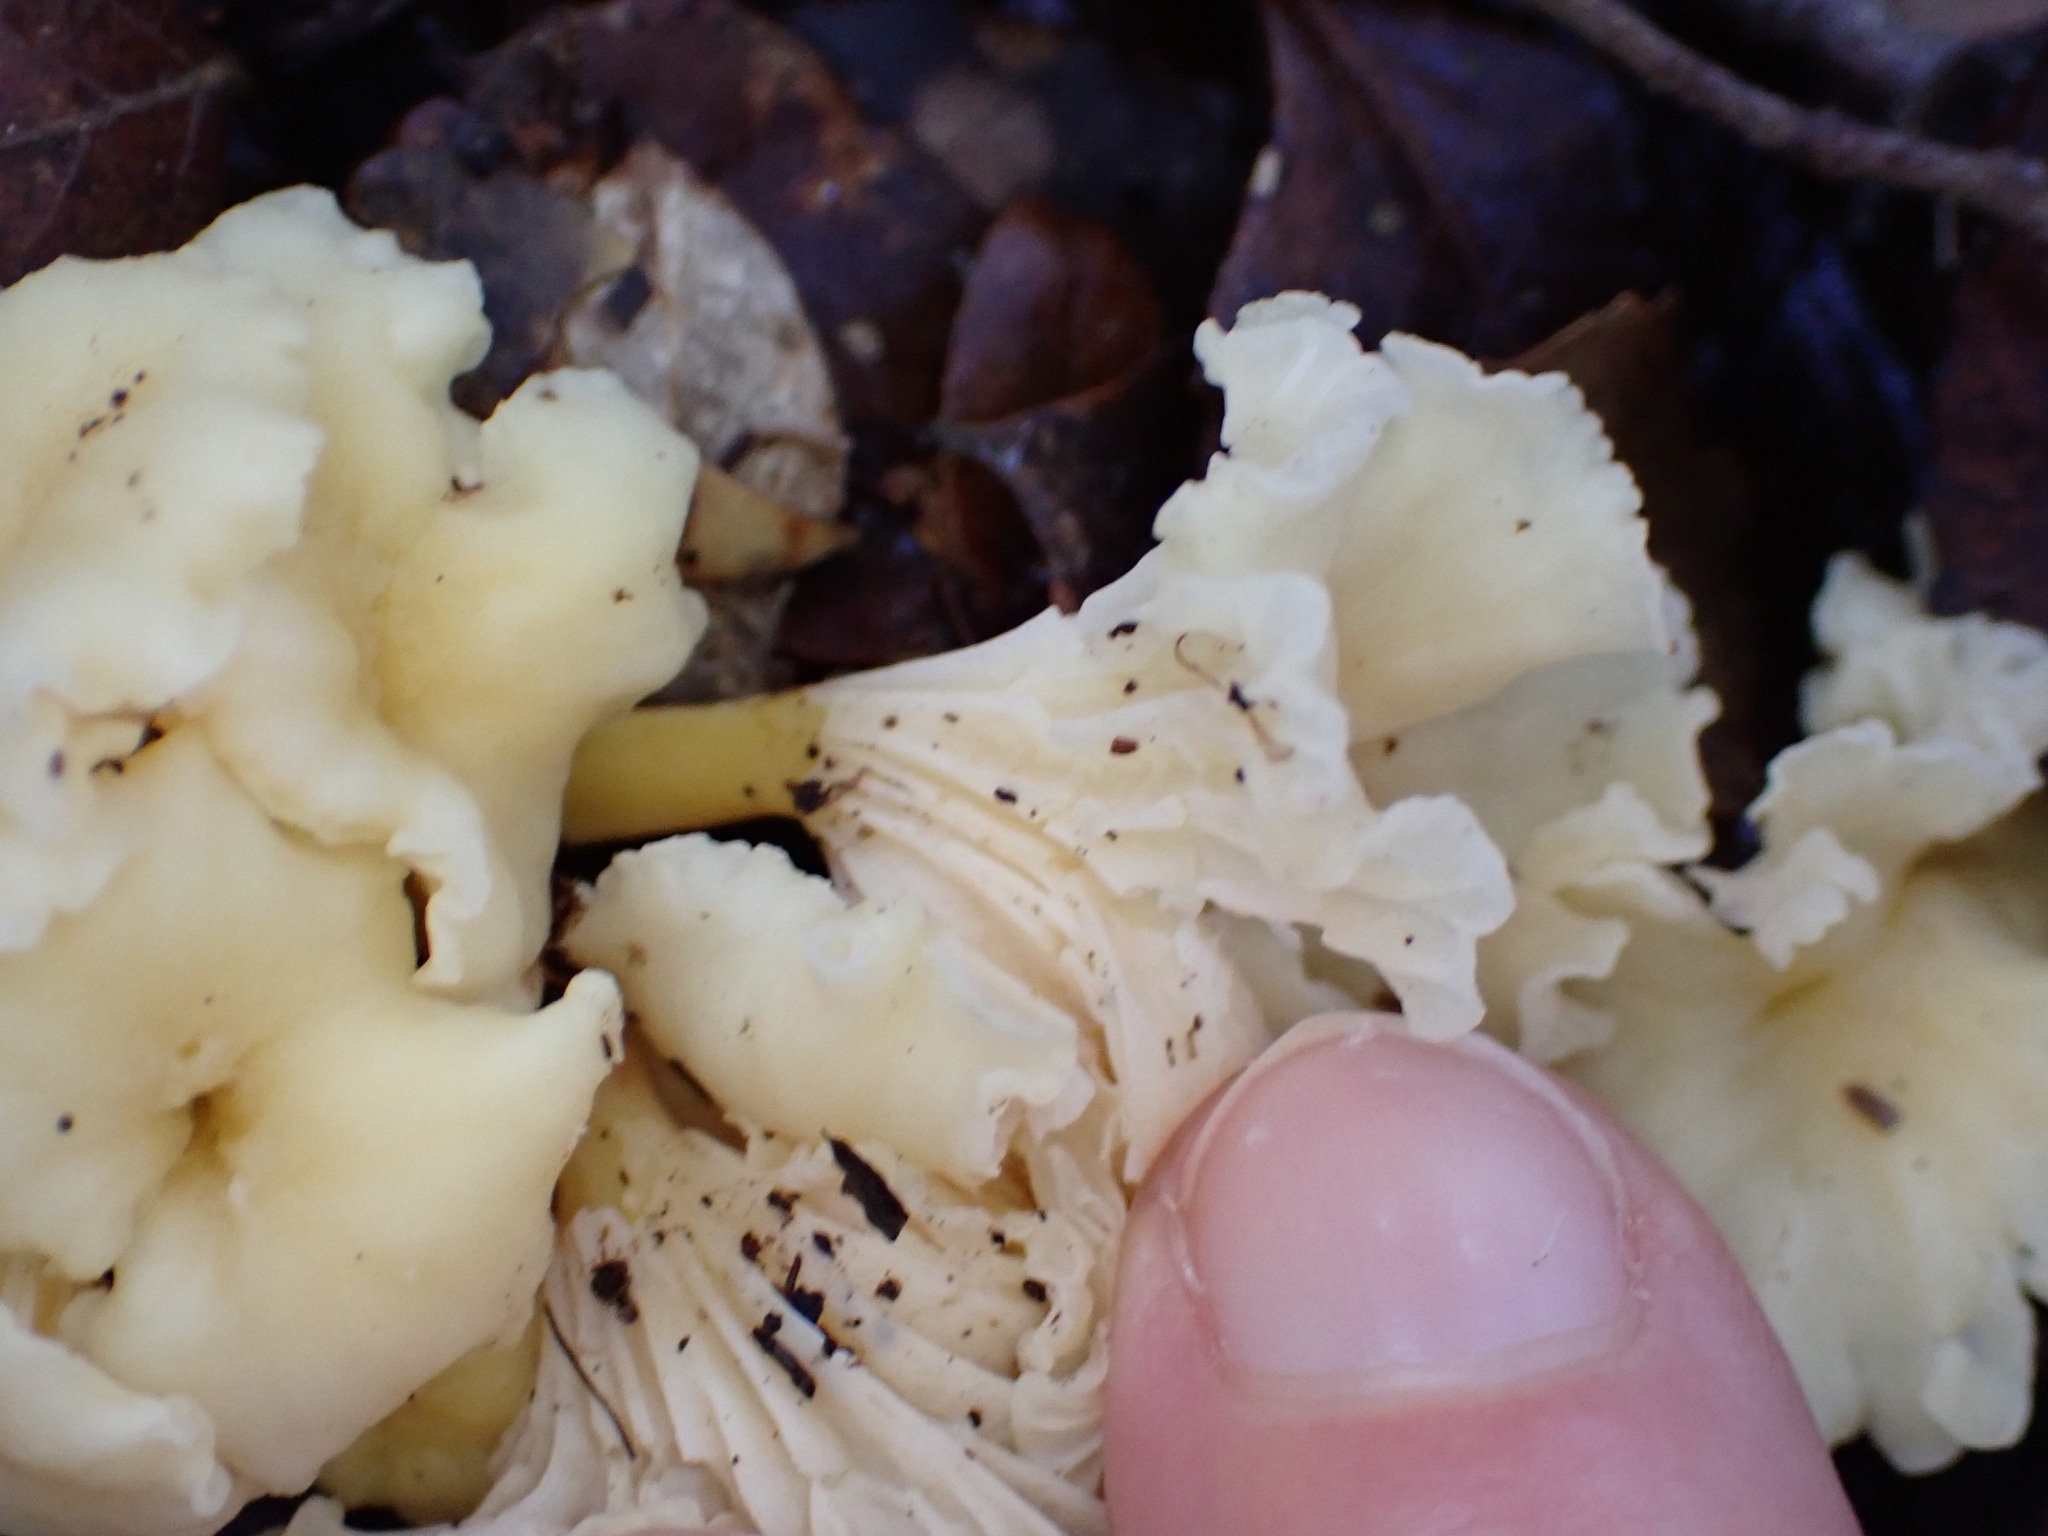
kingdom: Fungi
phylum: Basidiomycota
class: Agaricomycetes
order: Cantharellales
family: Hydnaceae
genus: Cantharellus
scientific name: Cantharellus wellingtonensis
